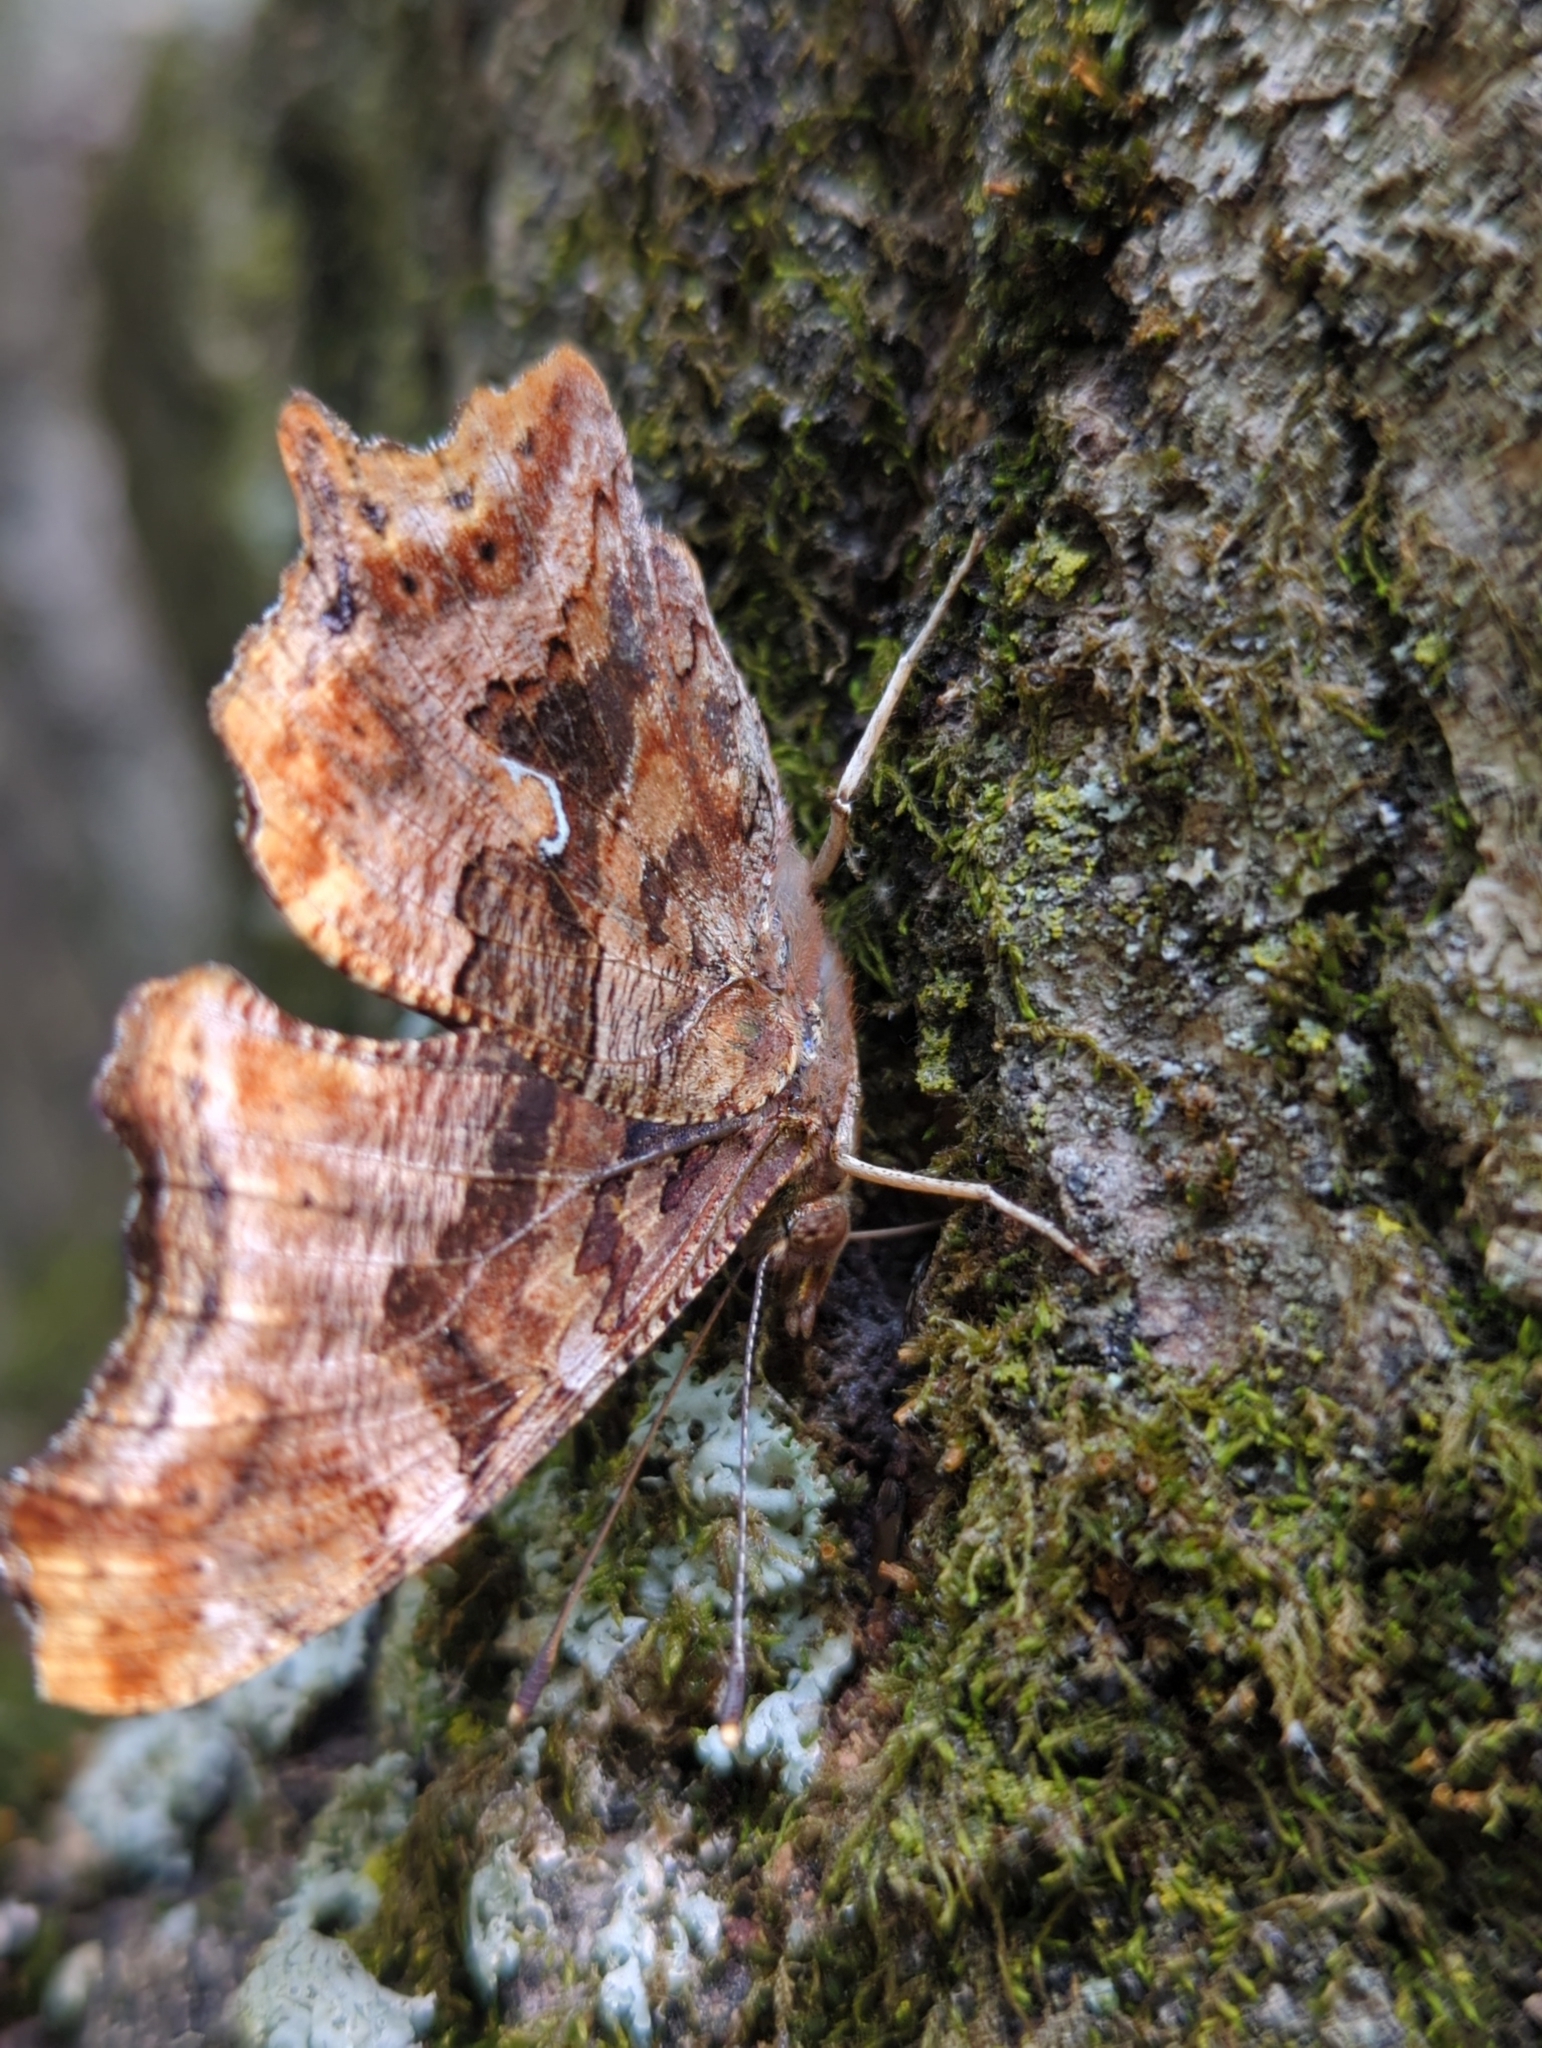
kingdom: Animalia
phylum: Arthropoda
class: Insecta
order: Lepidoptera
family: Nymphalidae
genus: Polygonia
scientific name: Polygonia comma
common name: Eastern comma
